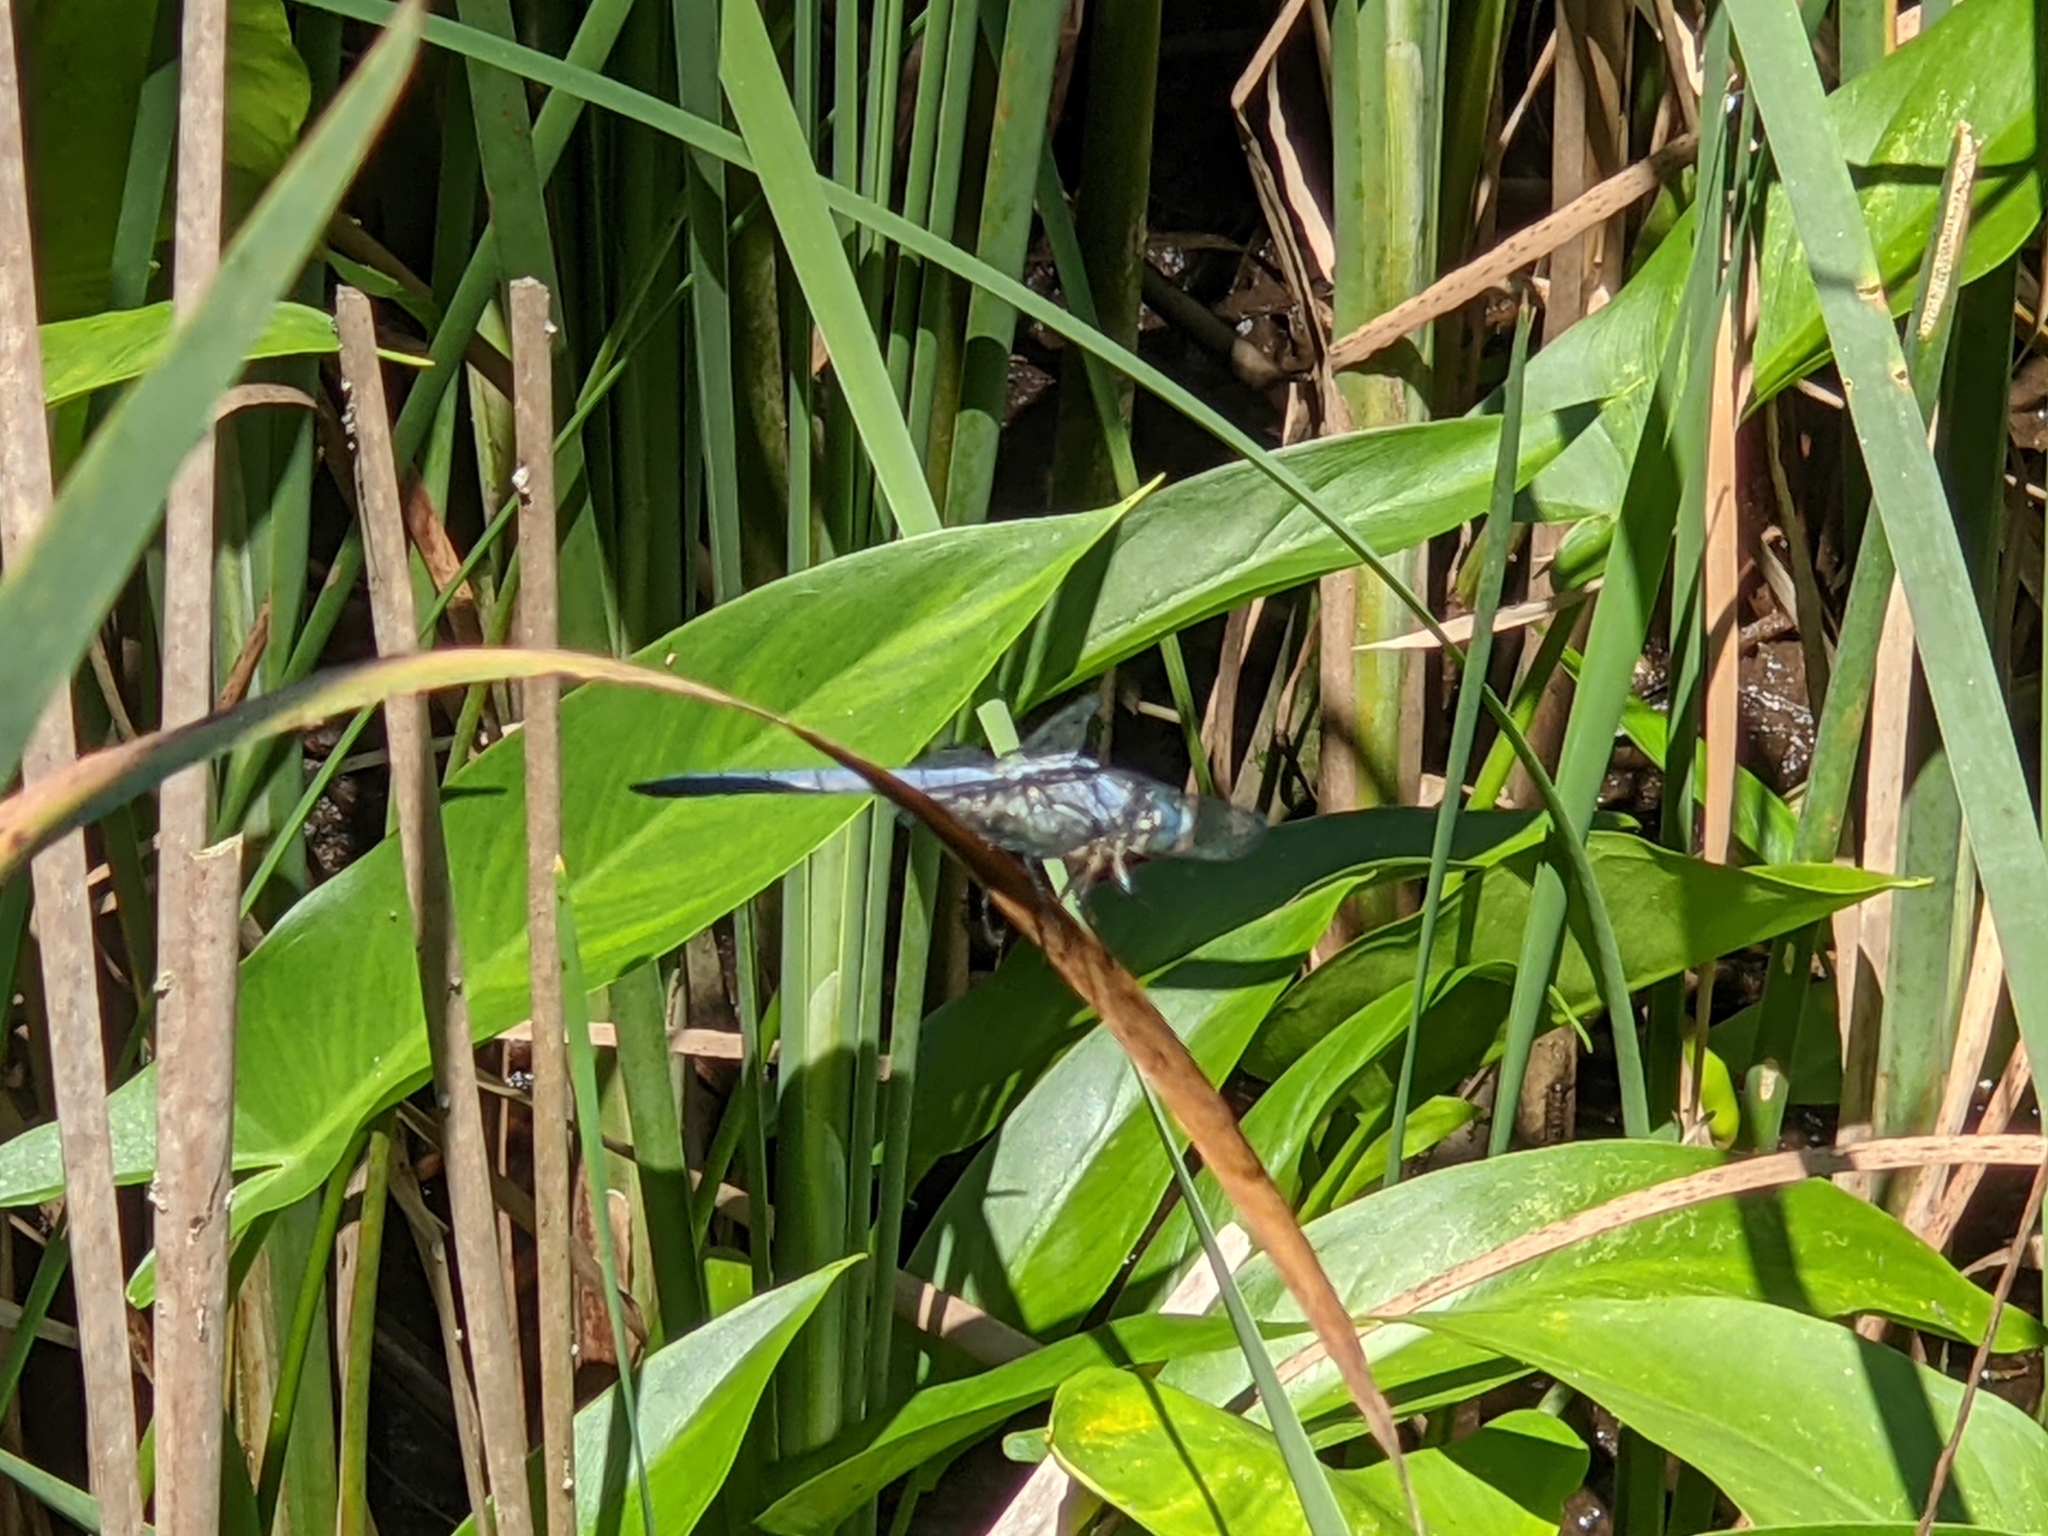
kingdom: Animalia
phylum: Arthropoda
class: Insecta
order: Odonata
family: Libellulidae
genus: Libellula
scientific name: Libellula vibrans
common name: Great blue skimmer
